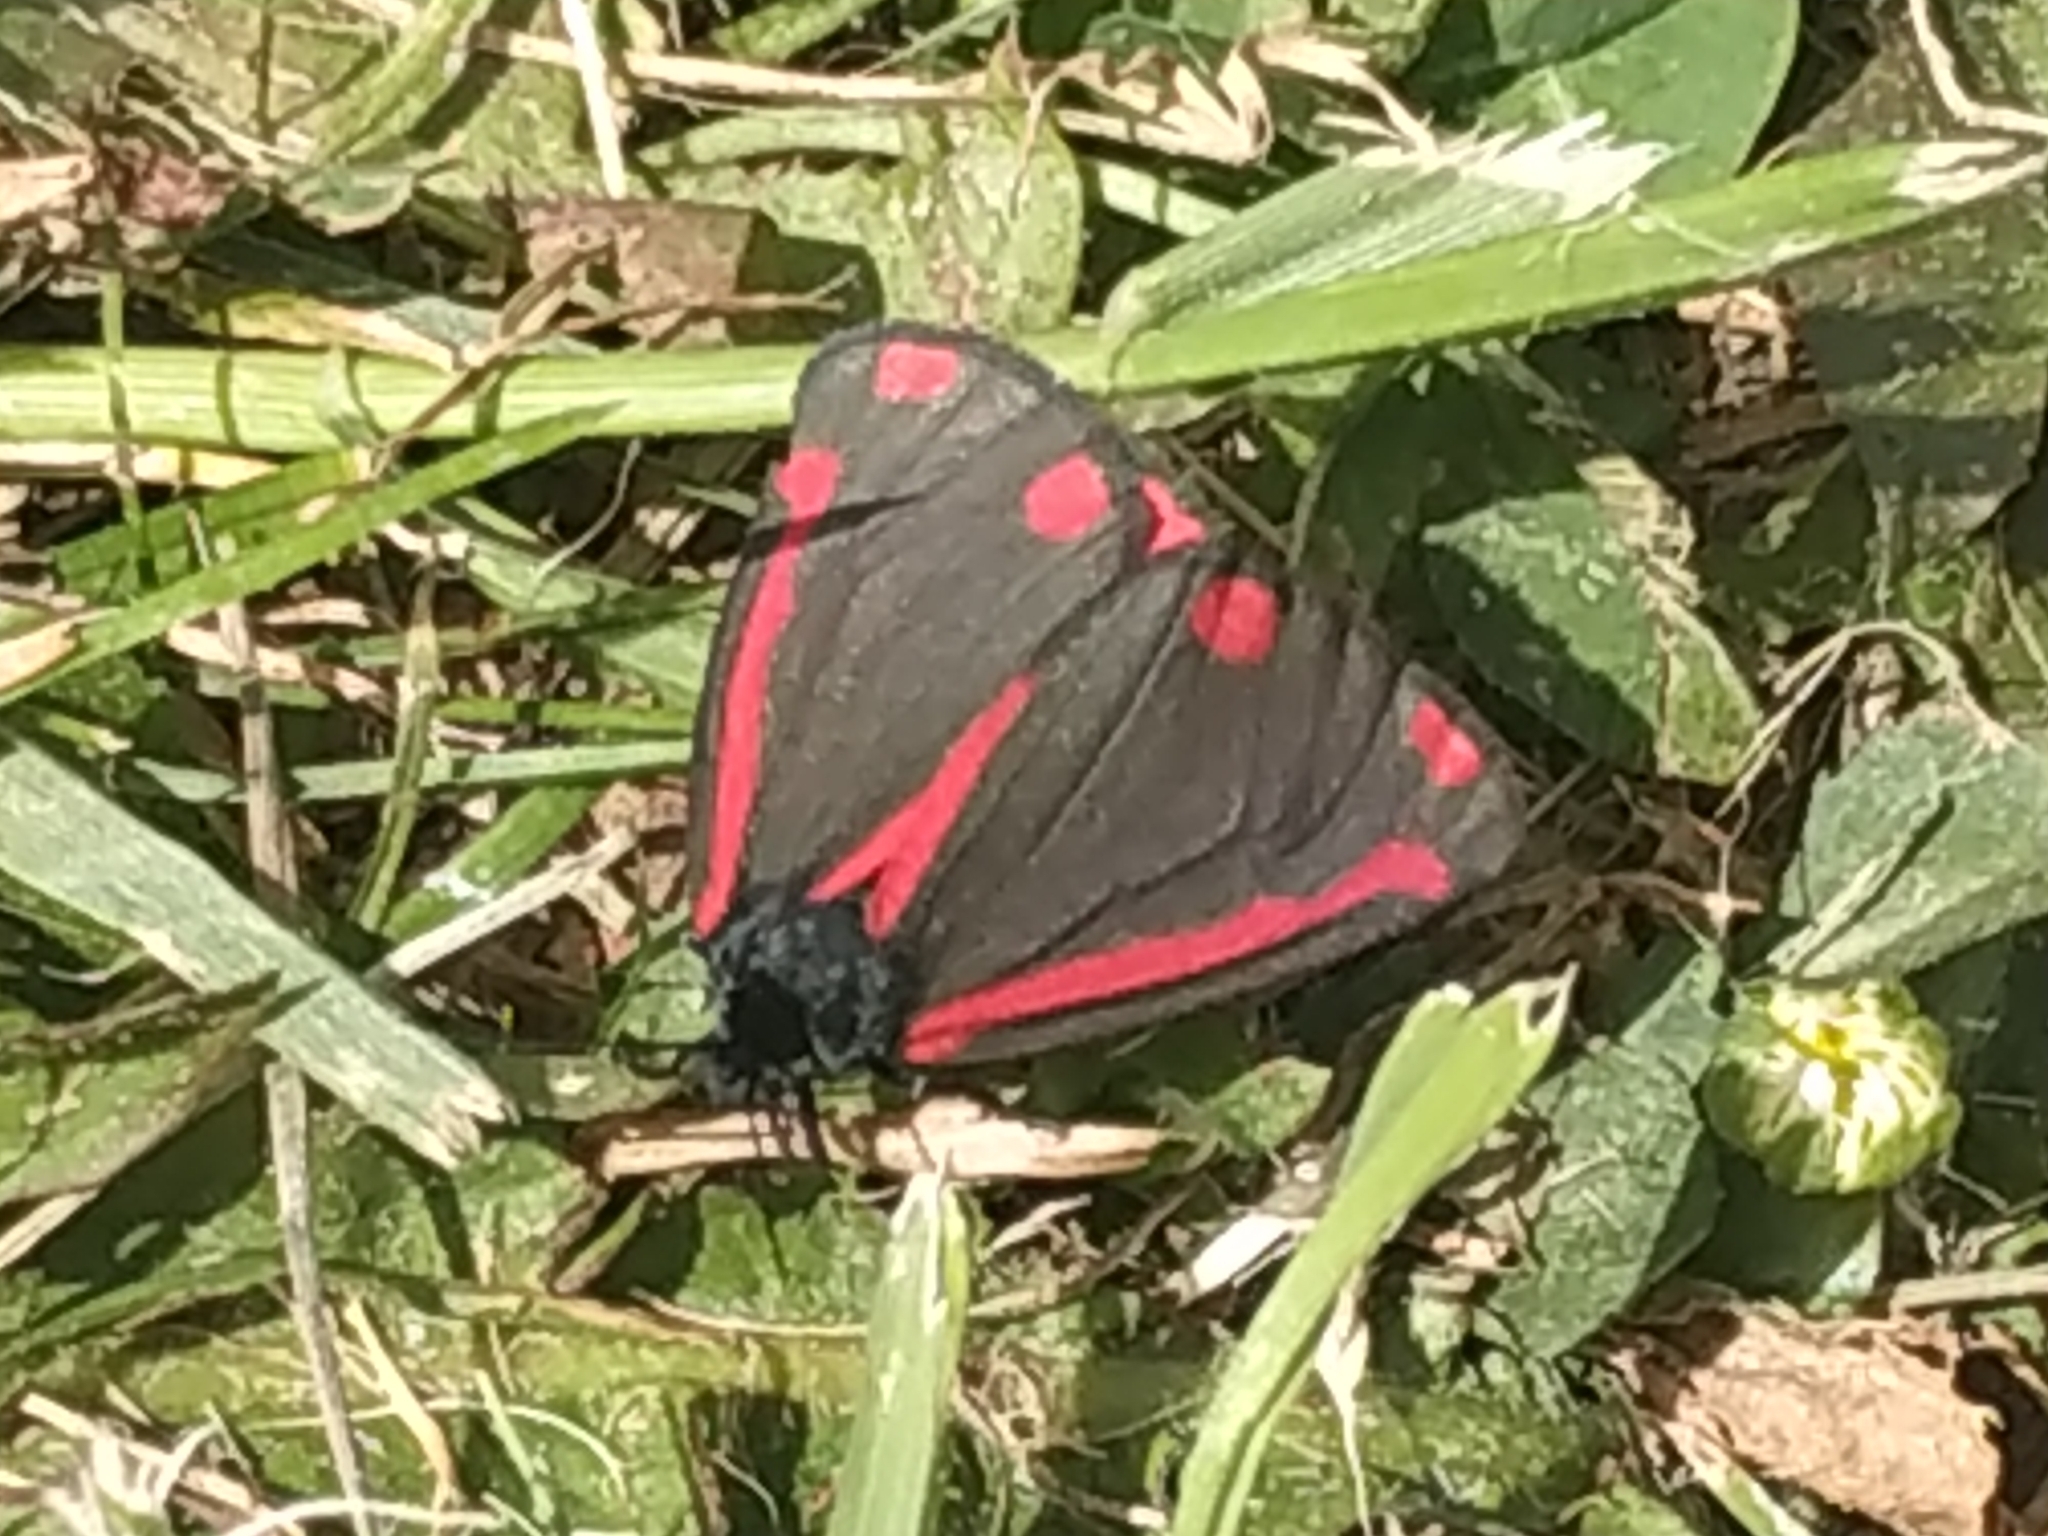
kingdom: Animalia
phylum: Arthropoda
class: Insecta
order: Lepidoptera
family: Erebidae
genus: Tyria
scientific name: Tyria jacobaeae
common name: Cinnabar
